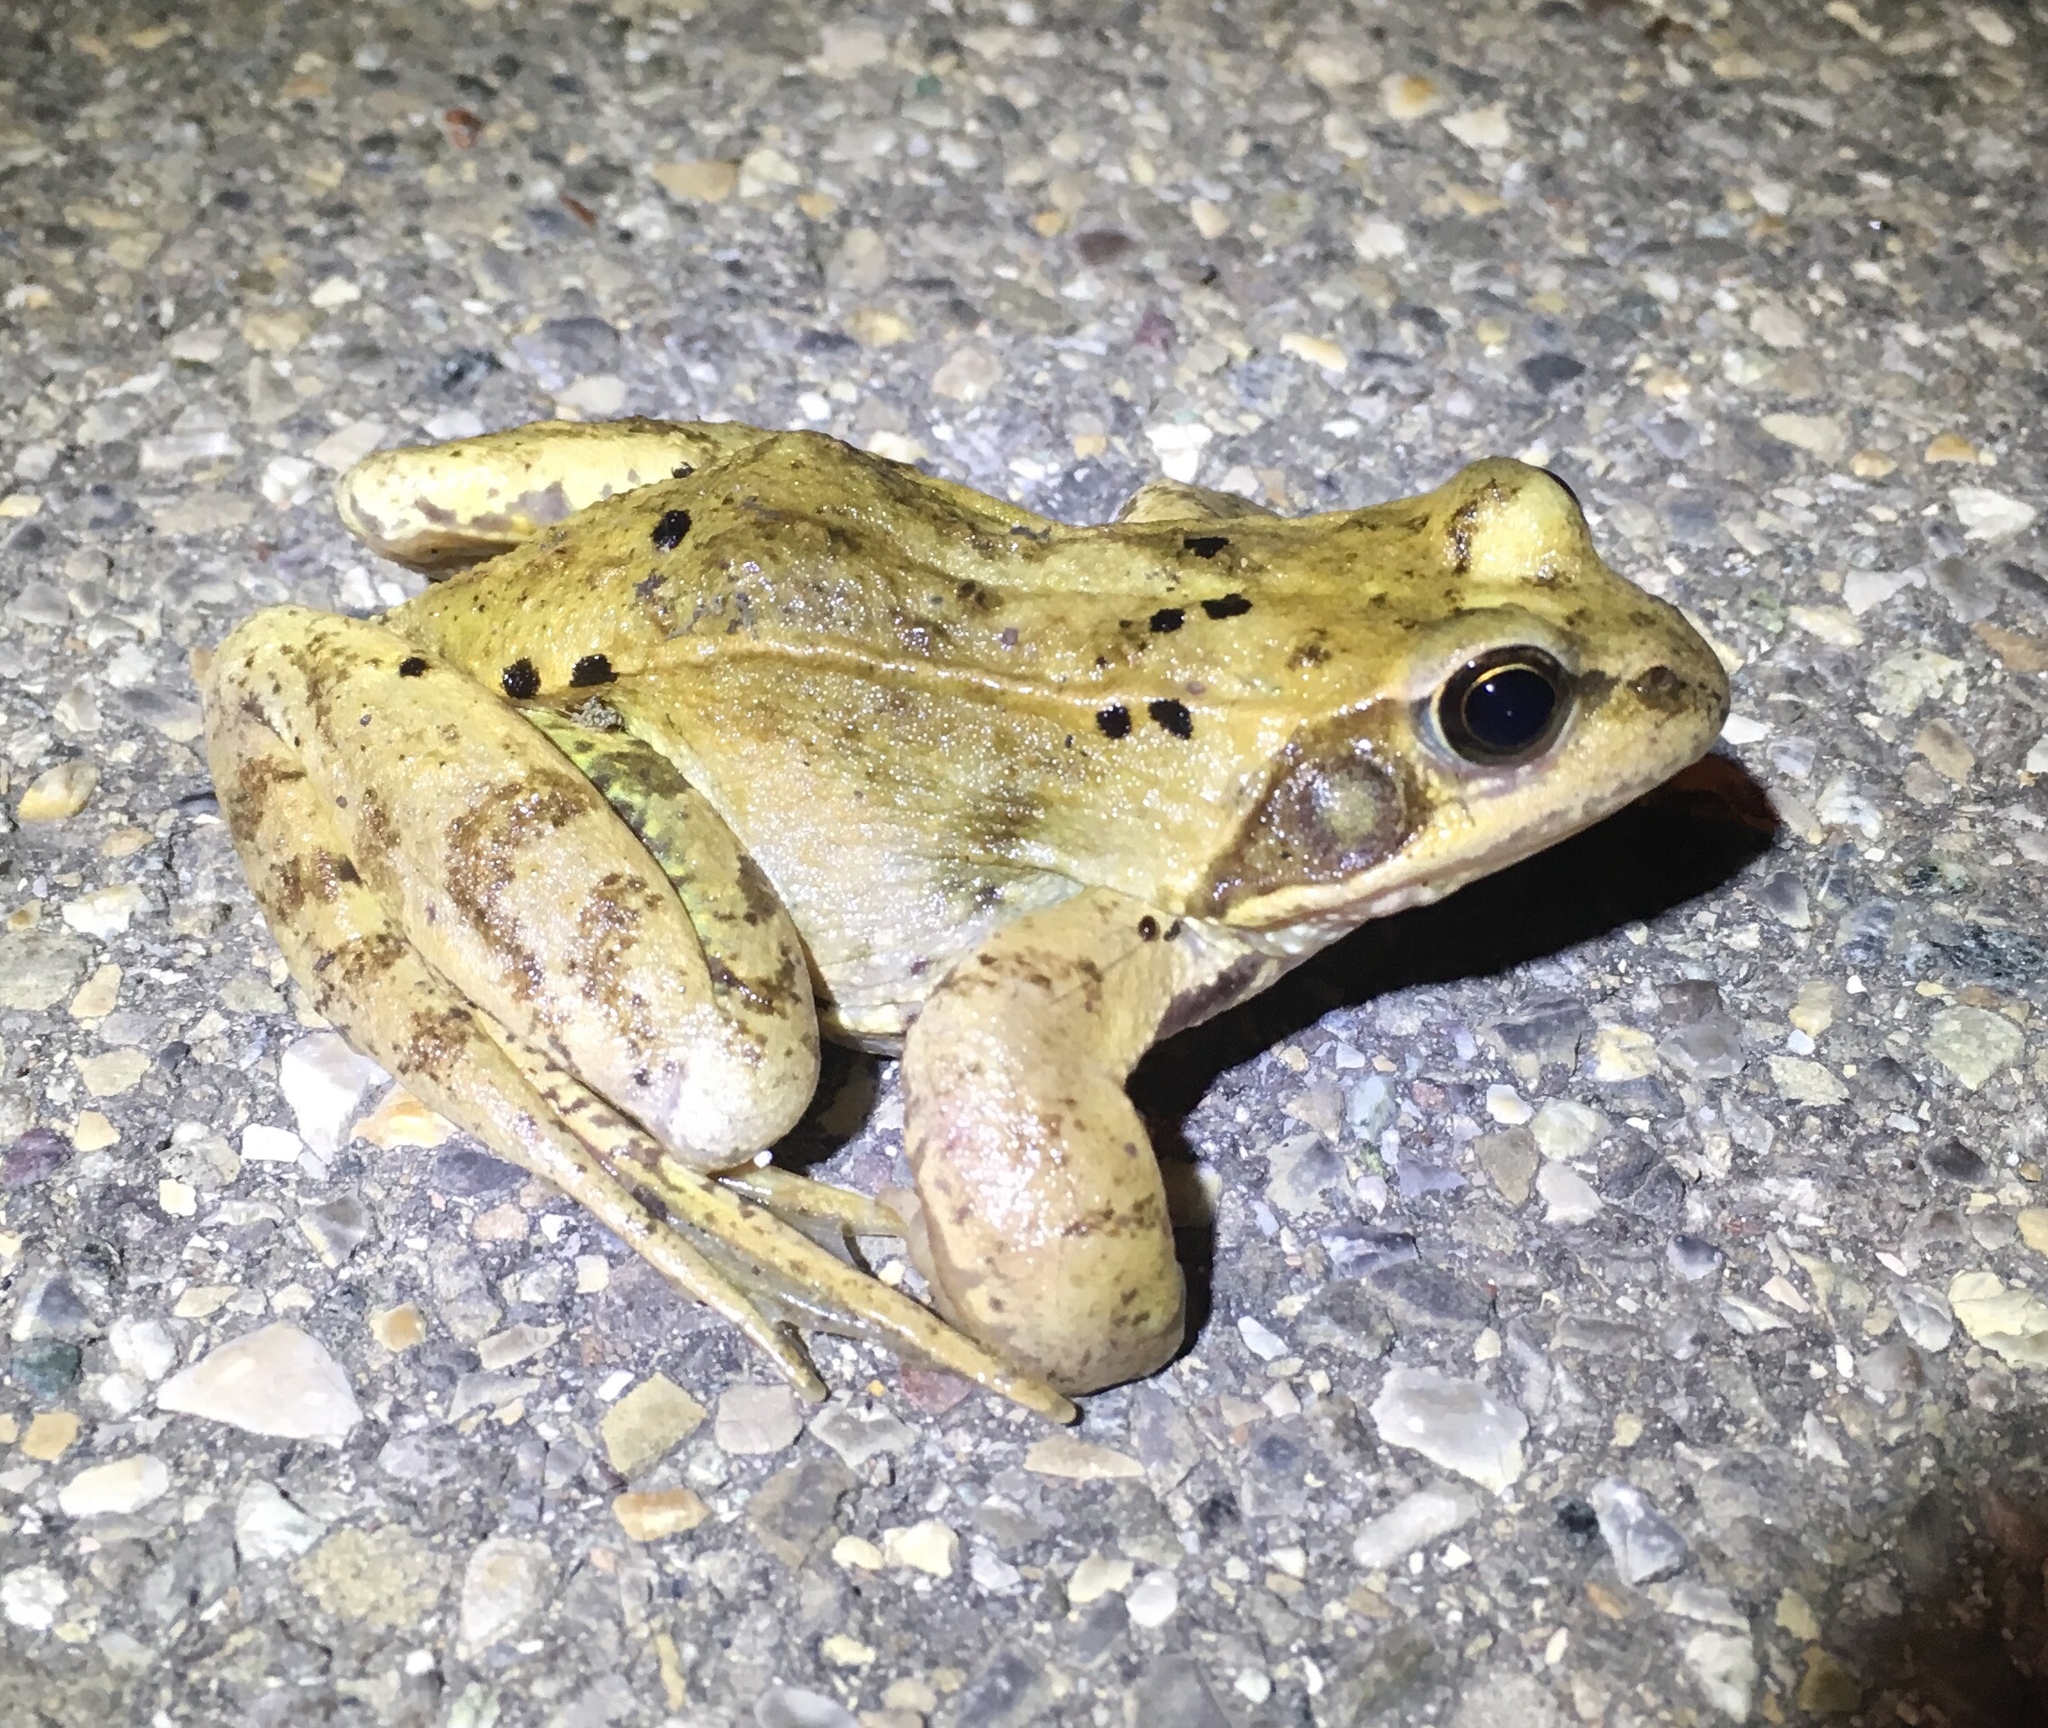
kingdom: Animalia
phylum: Chordata
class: Amphibia
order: Anura
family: Ranidae
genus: Rana
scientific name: Rana temporaria
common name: Common frog
